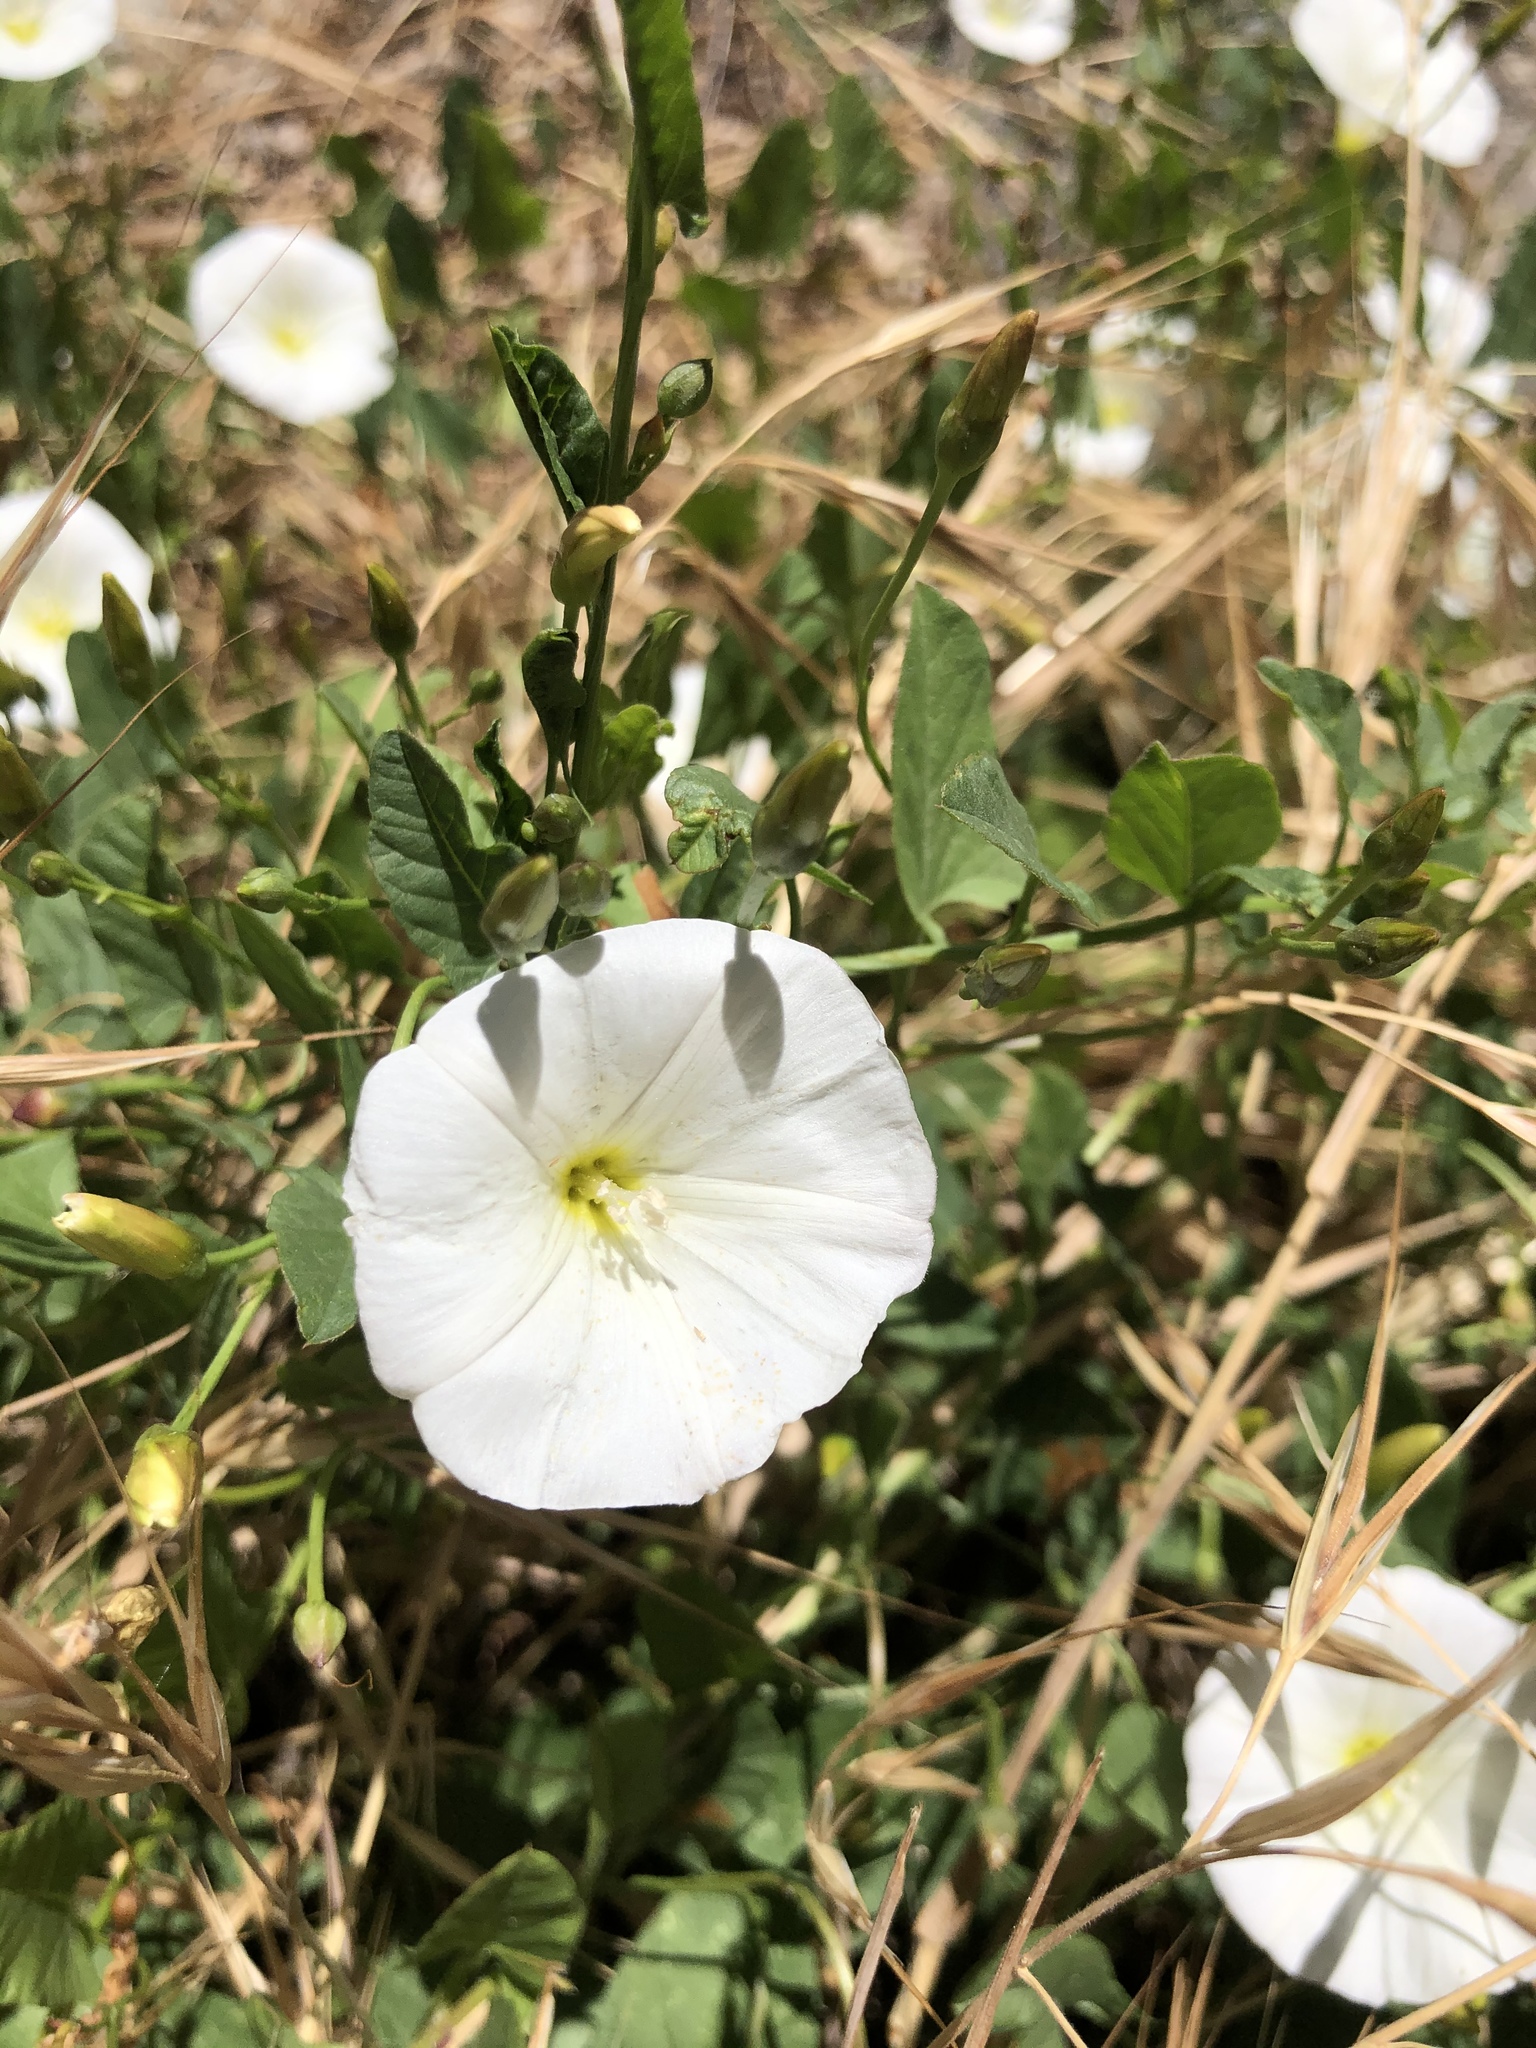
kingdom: Plantae
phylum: Tracheophyta
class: Magnoliopsida
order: Solanales
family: Convolvulaceae
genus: Convolvulus
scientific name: Convolvulus arvensis
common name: Field bindweed
